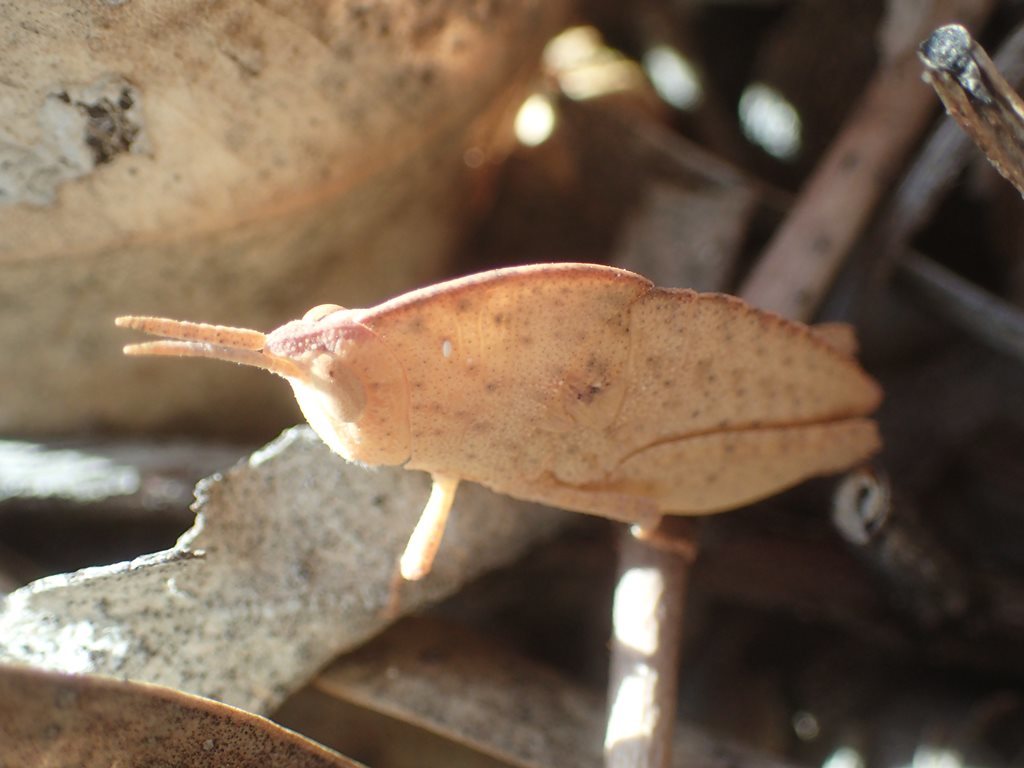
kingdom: Animalia
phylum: Arthropoda
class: Insecta
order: Orthoptera
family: Acrididae
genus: Goniaea
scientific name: Goniaea australasiae
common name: Gumleaf grasshopper
